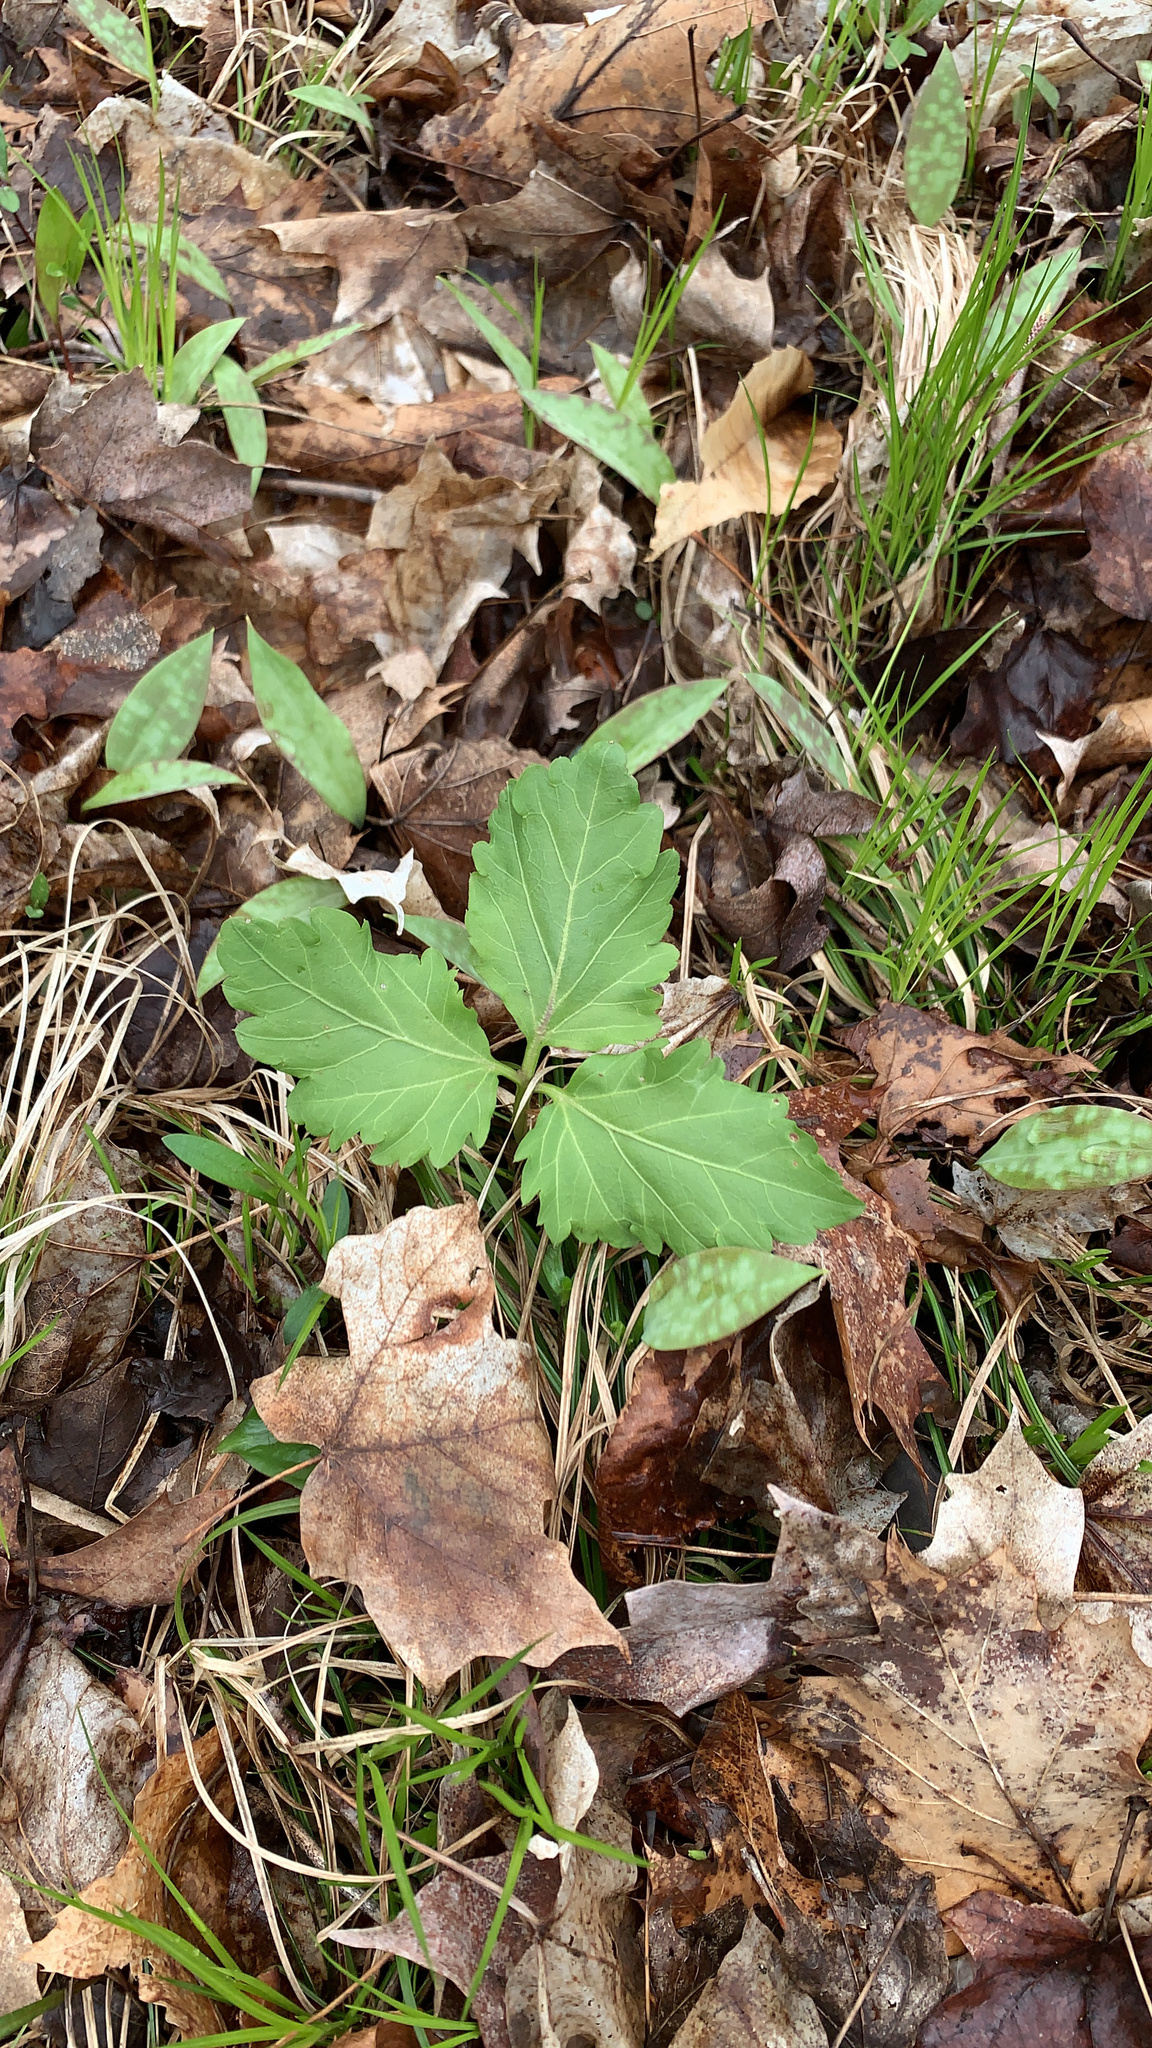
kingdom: Plantae
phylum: Tracheophyta
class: Magnoliopsida
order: Brassicales
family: Brassicaceae
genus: Cardamine
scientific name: Cardamine diphylla
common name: Broad-leaved toothwort
